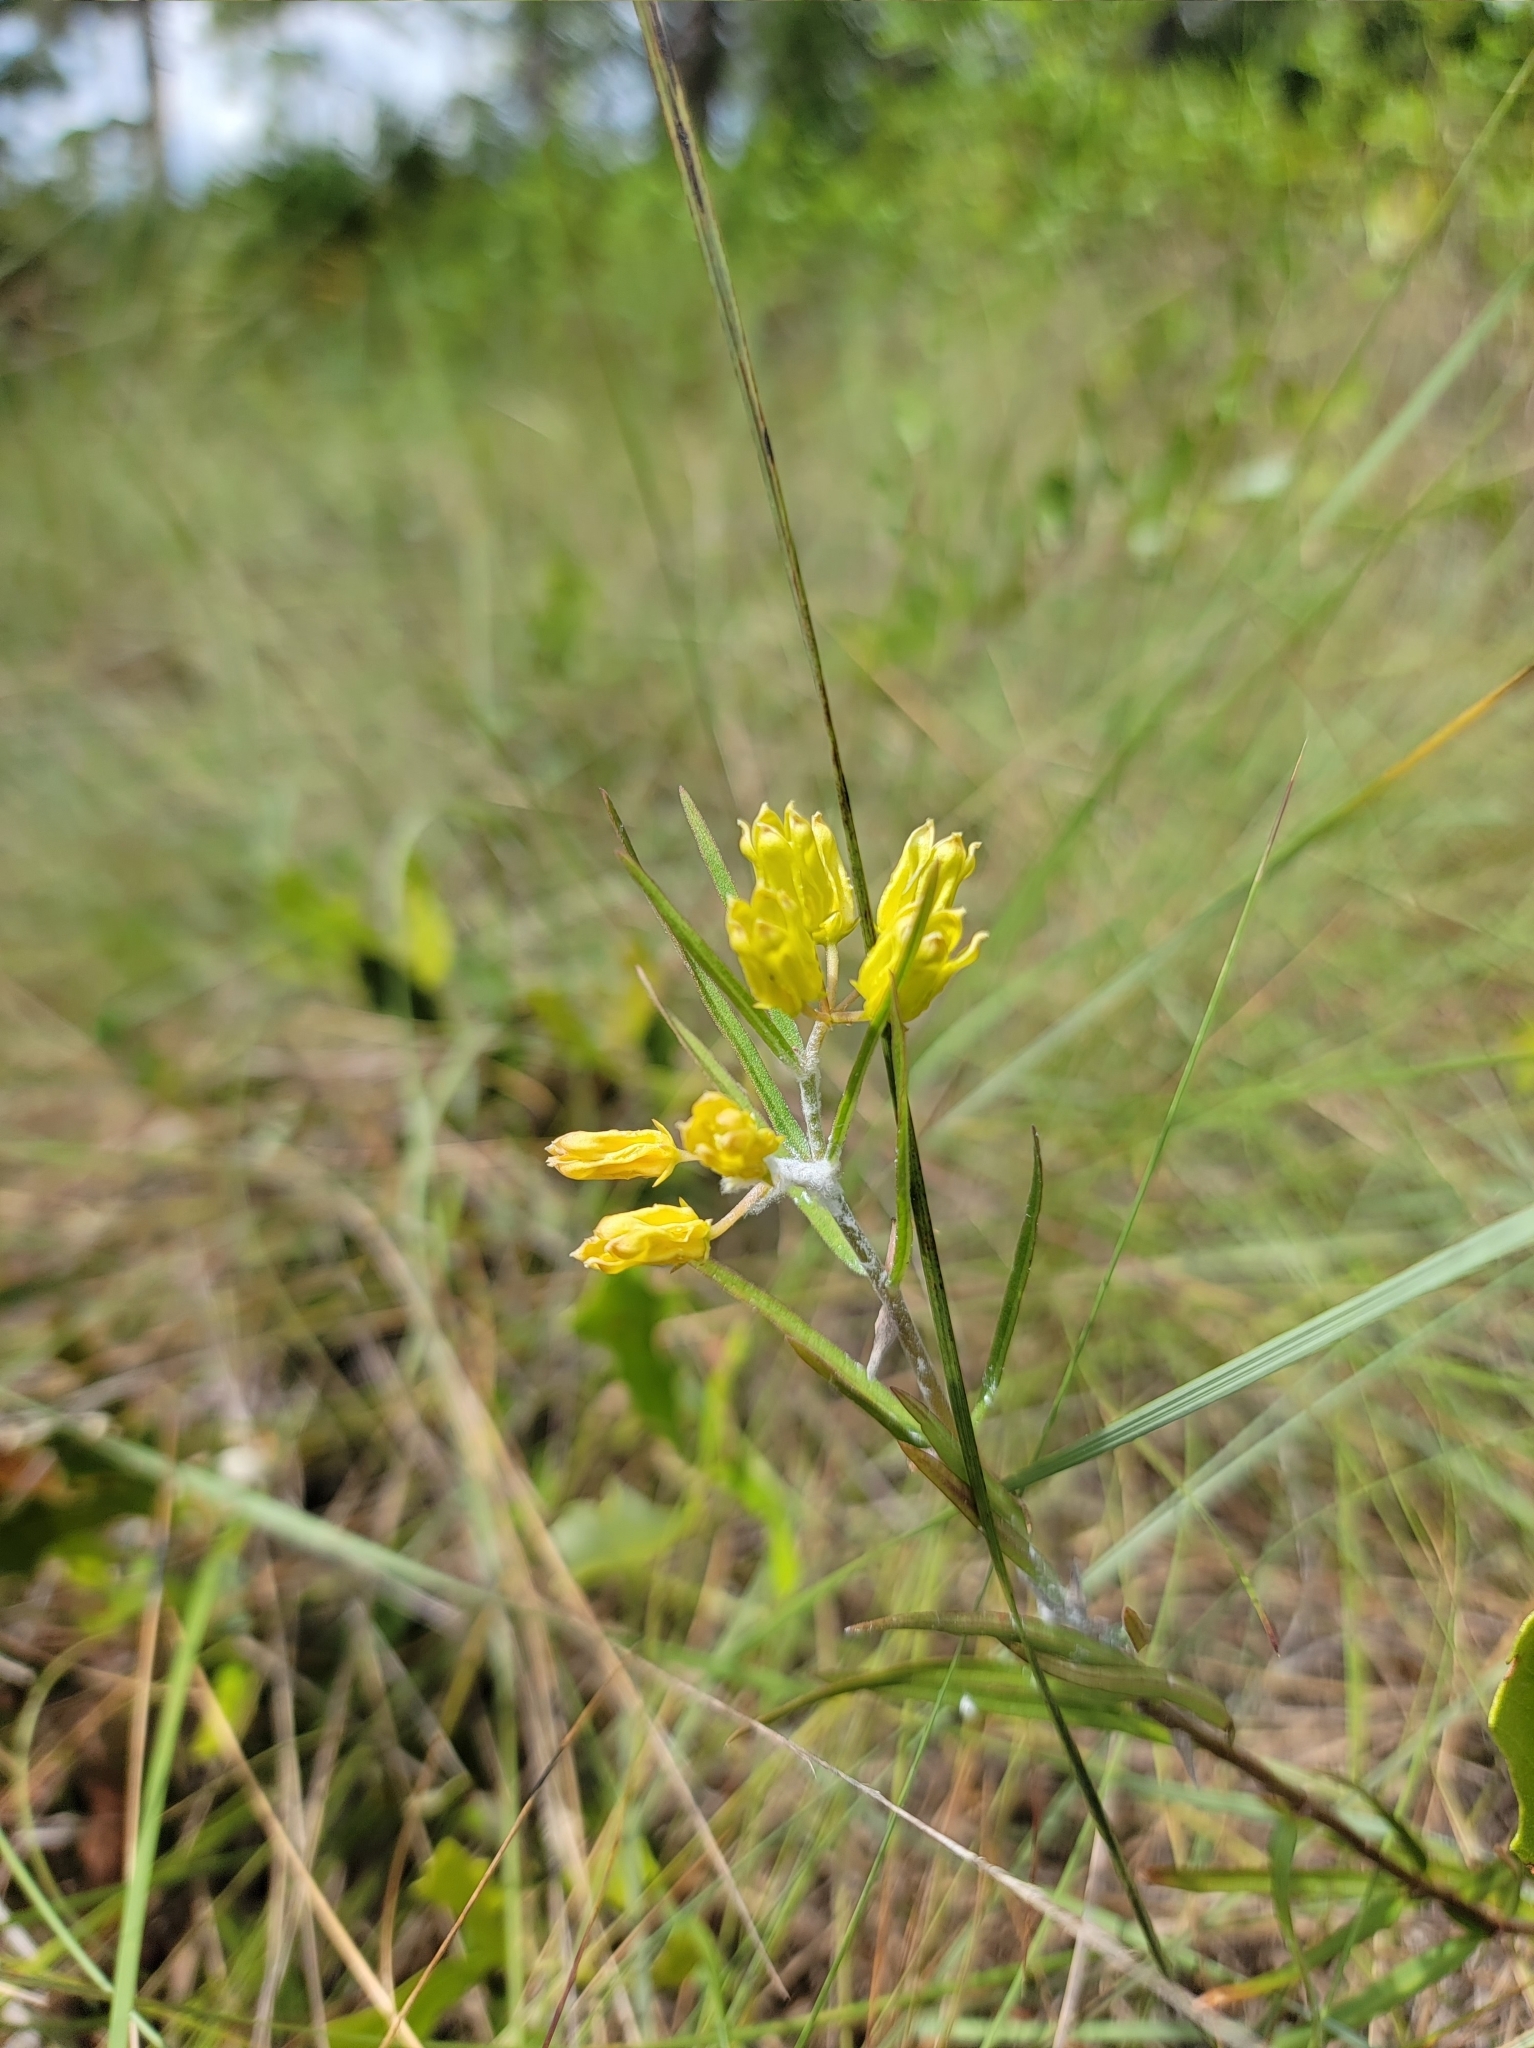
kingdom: Plantae
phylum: Tracheophyta
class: Magnoliopsida
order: Gentianales
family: Apocynaceae
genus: Asclepias
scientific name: Asclepias pedicellata
